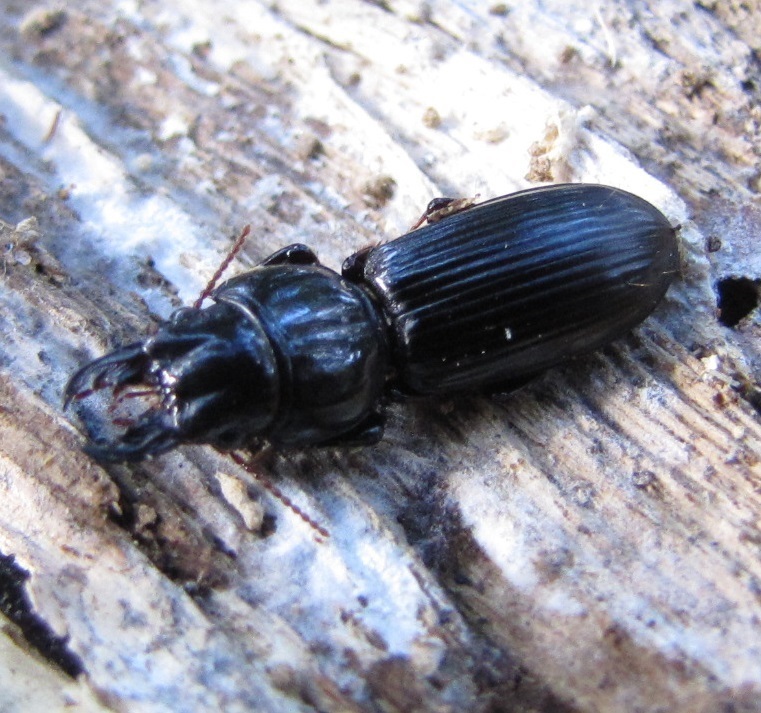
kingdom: Animalia
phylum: Arthropoda
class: Insecta
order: Coleoptera
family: Carabidae
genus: Scarites
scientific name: Scarites subterraneus
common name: Big-headed ground beetle
